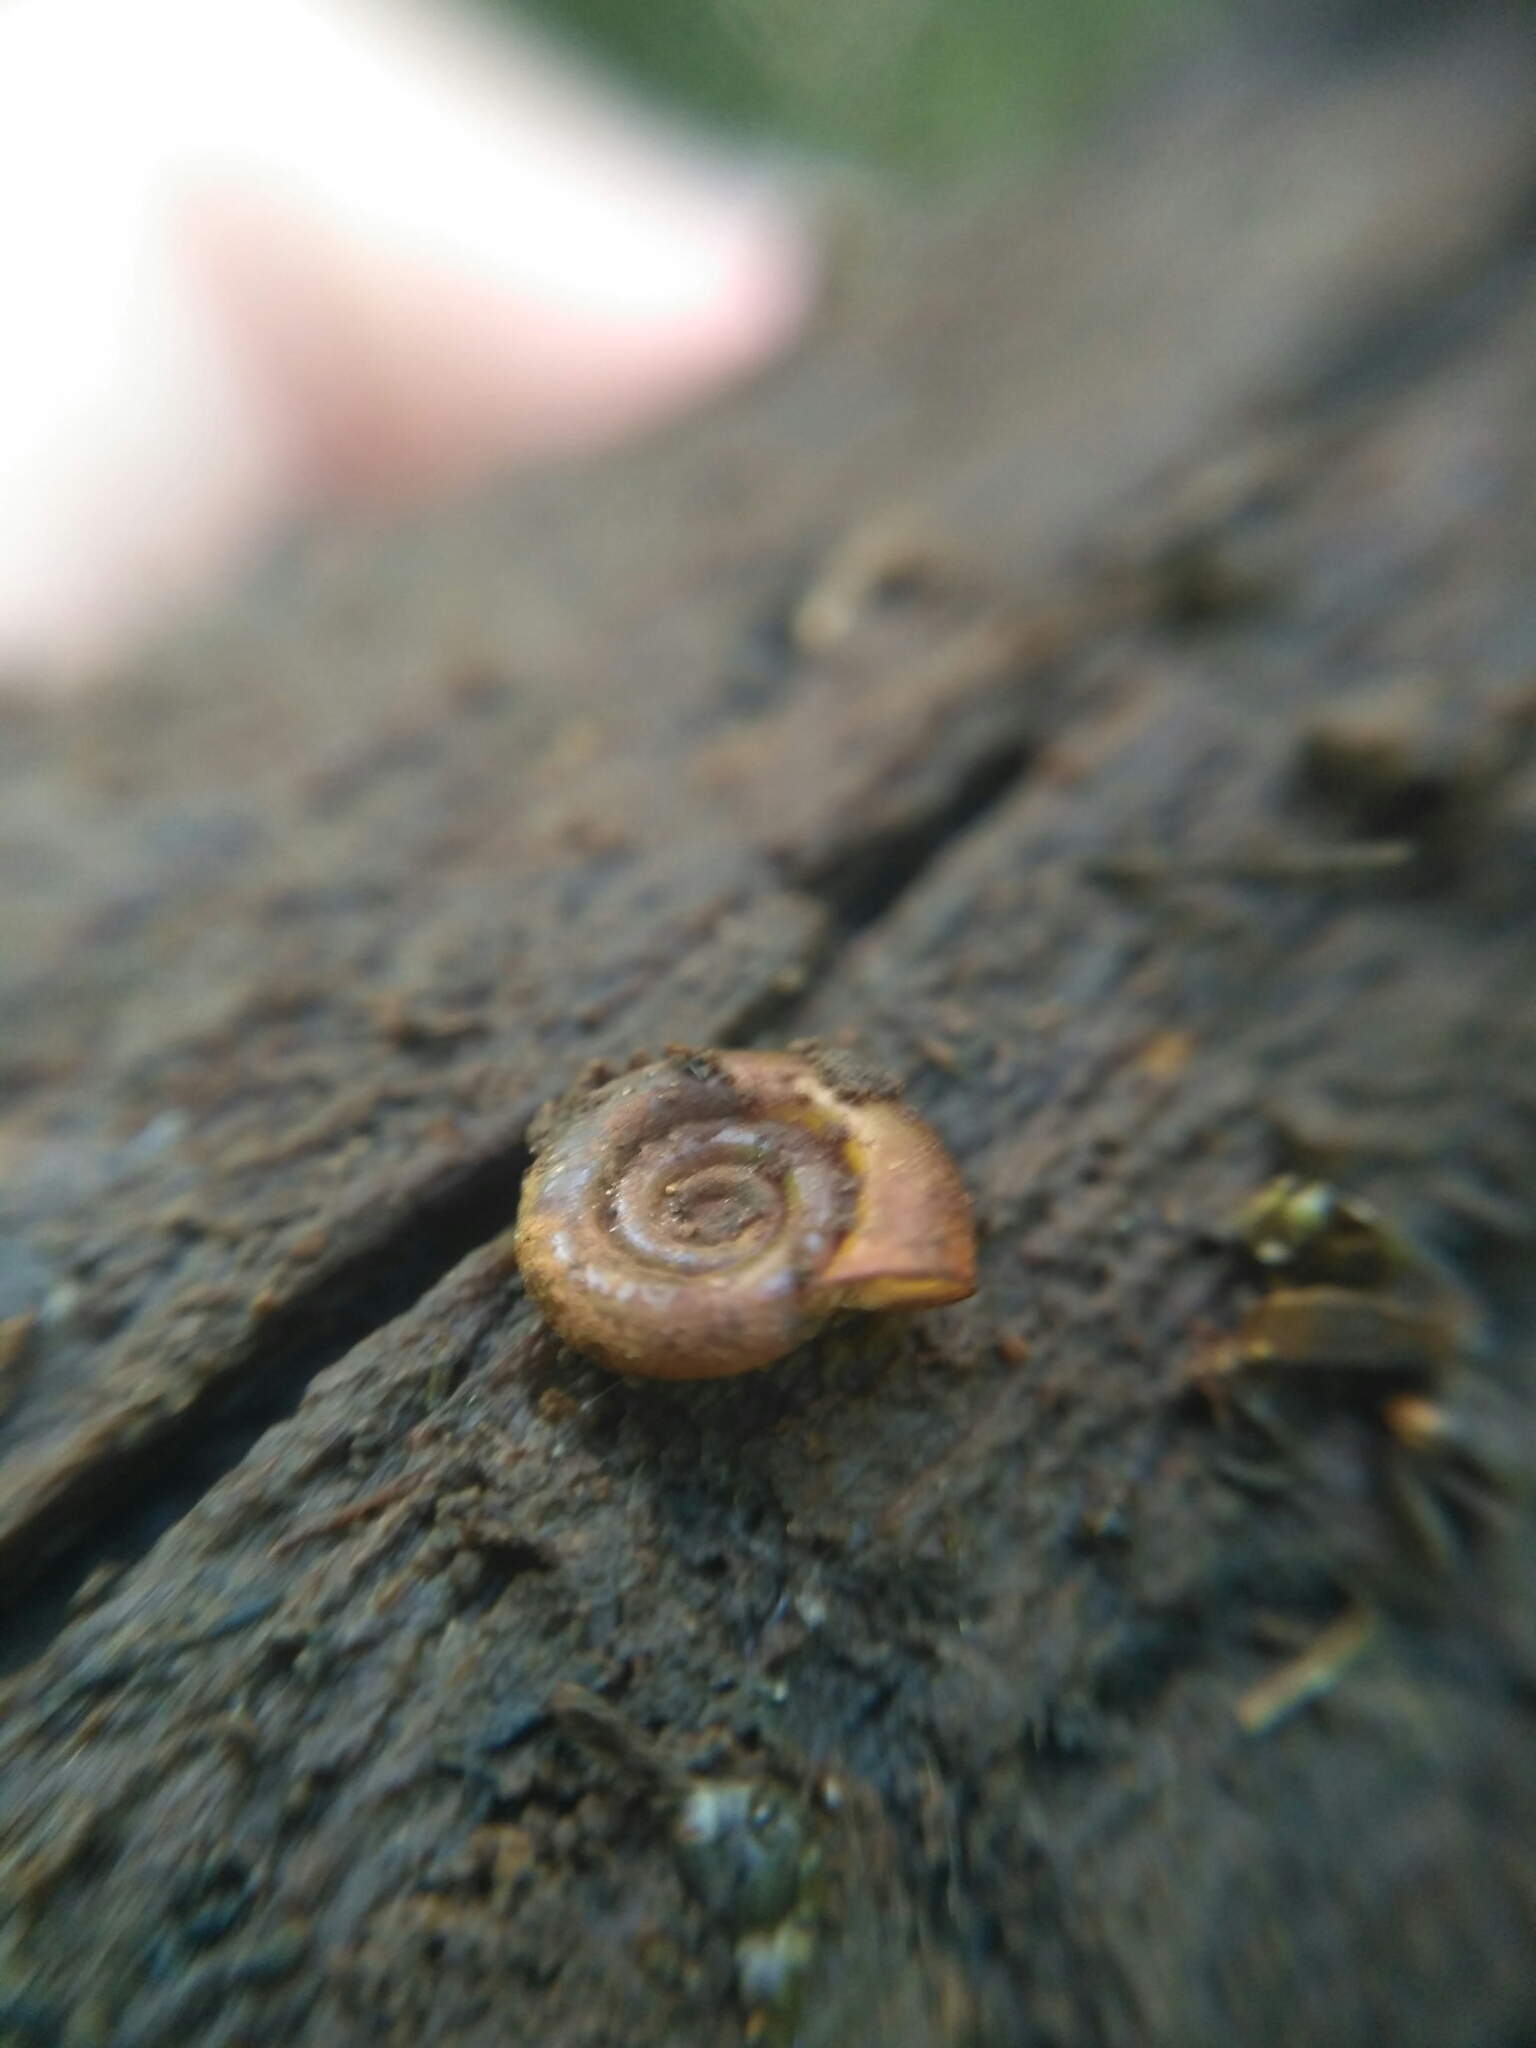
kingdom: Animalia
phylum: Mollusca
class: Gastropoda
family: Planorbidae
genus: Anisus
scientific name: Anisus leucostoma
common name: Button ram's horn
